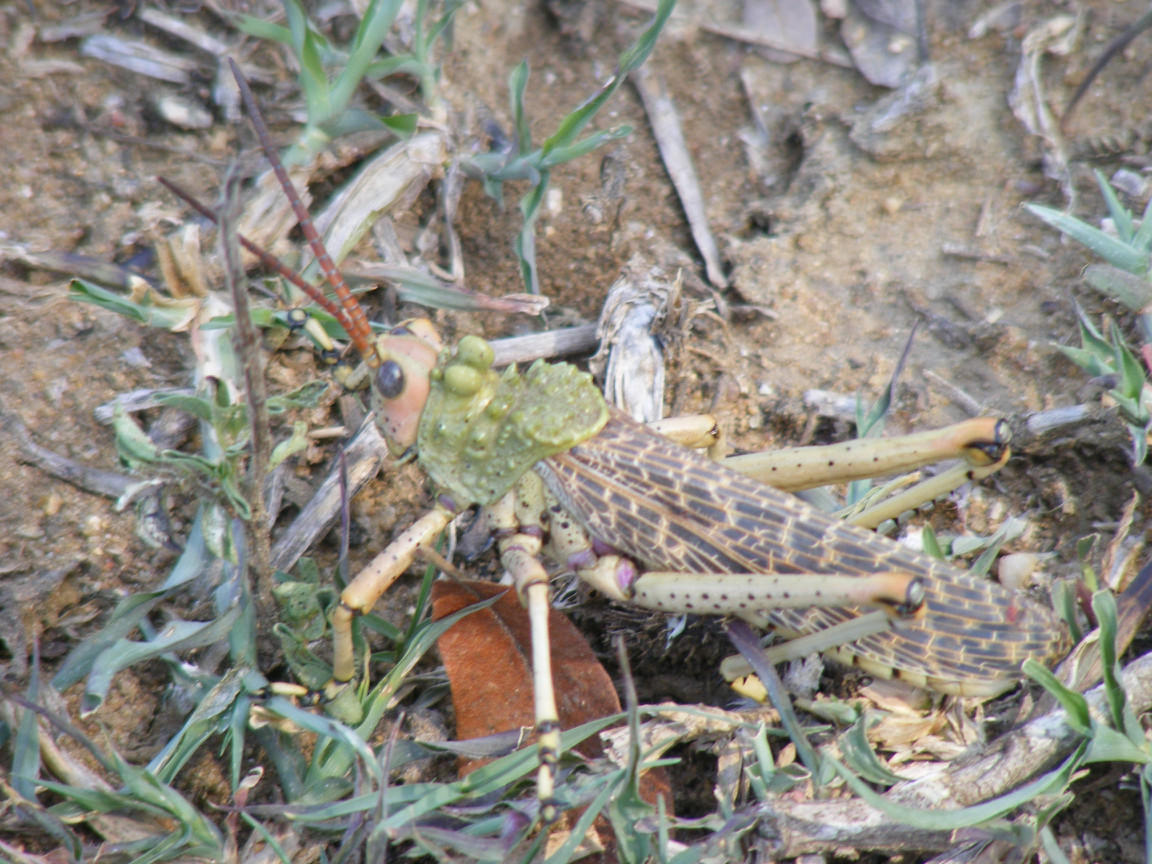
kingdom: Animalia
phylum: Arthropoda
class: Insecta
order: Orthoptera
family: Pyrgomorphidae
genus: Phymateus
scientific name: Phymateus leprosus
